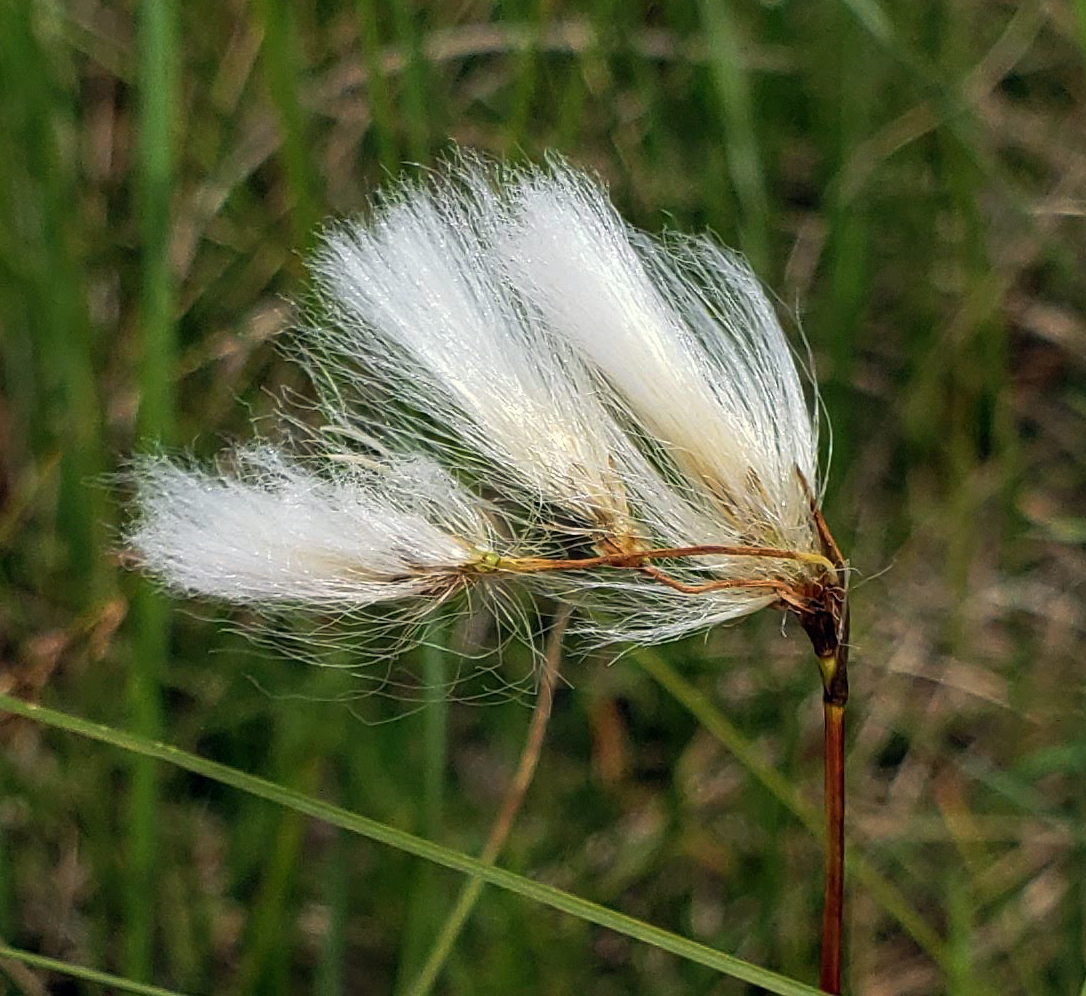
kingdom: Plantae
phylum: Tracheophyta
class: Liliopsida
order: Poales
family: Cyperaceae
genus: Eriophorum
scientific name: Eriophorum angustifolium
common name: Common cottongrass
